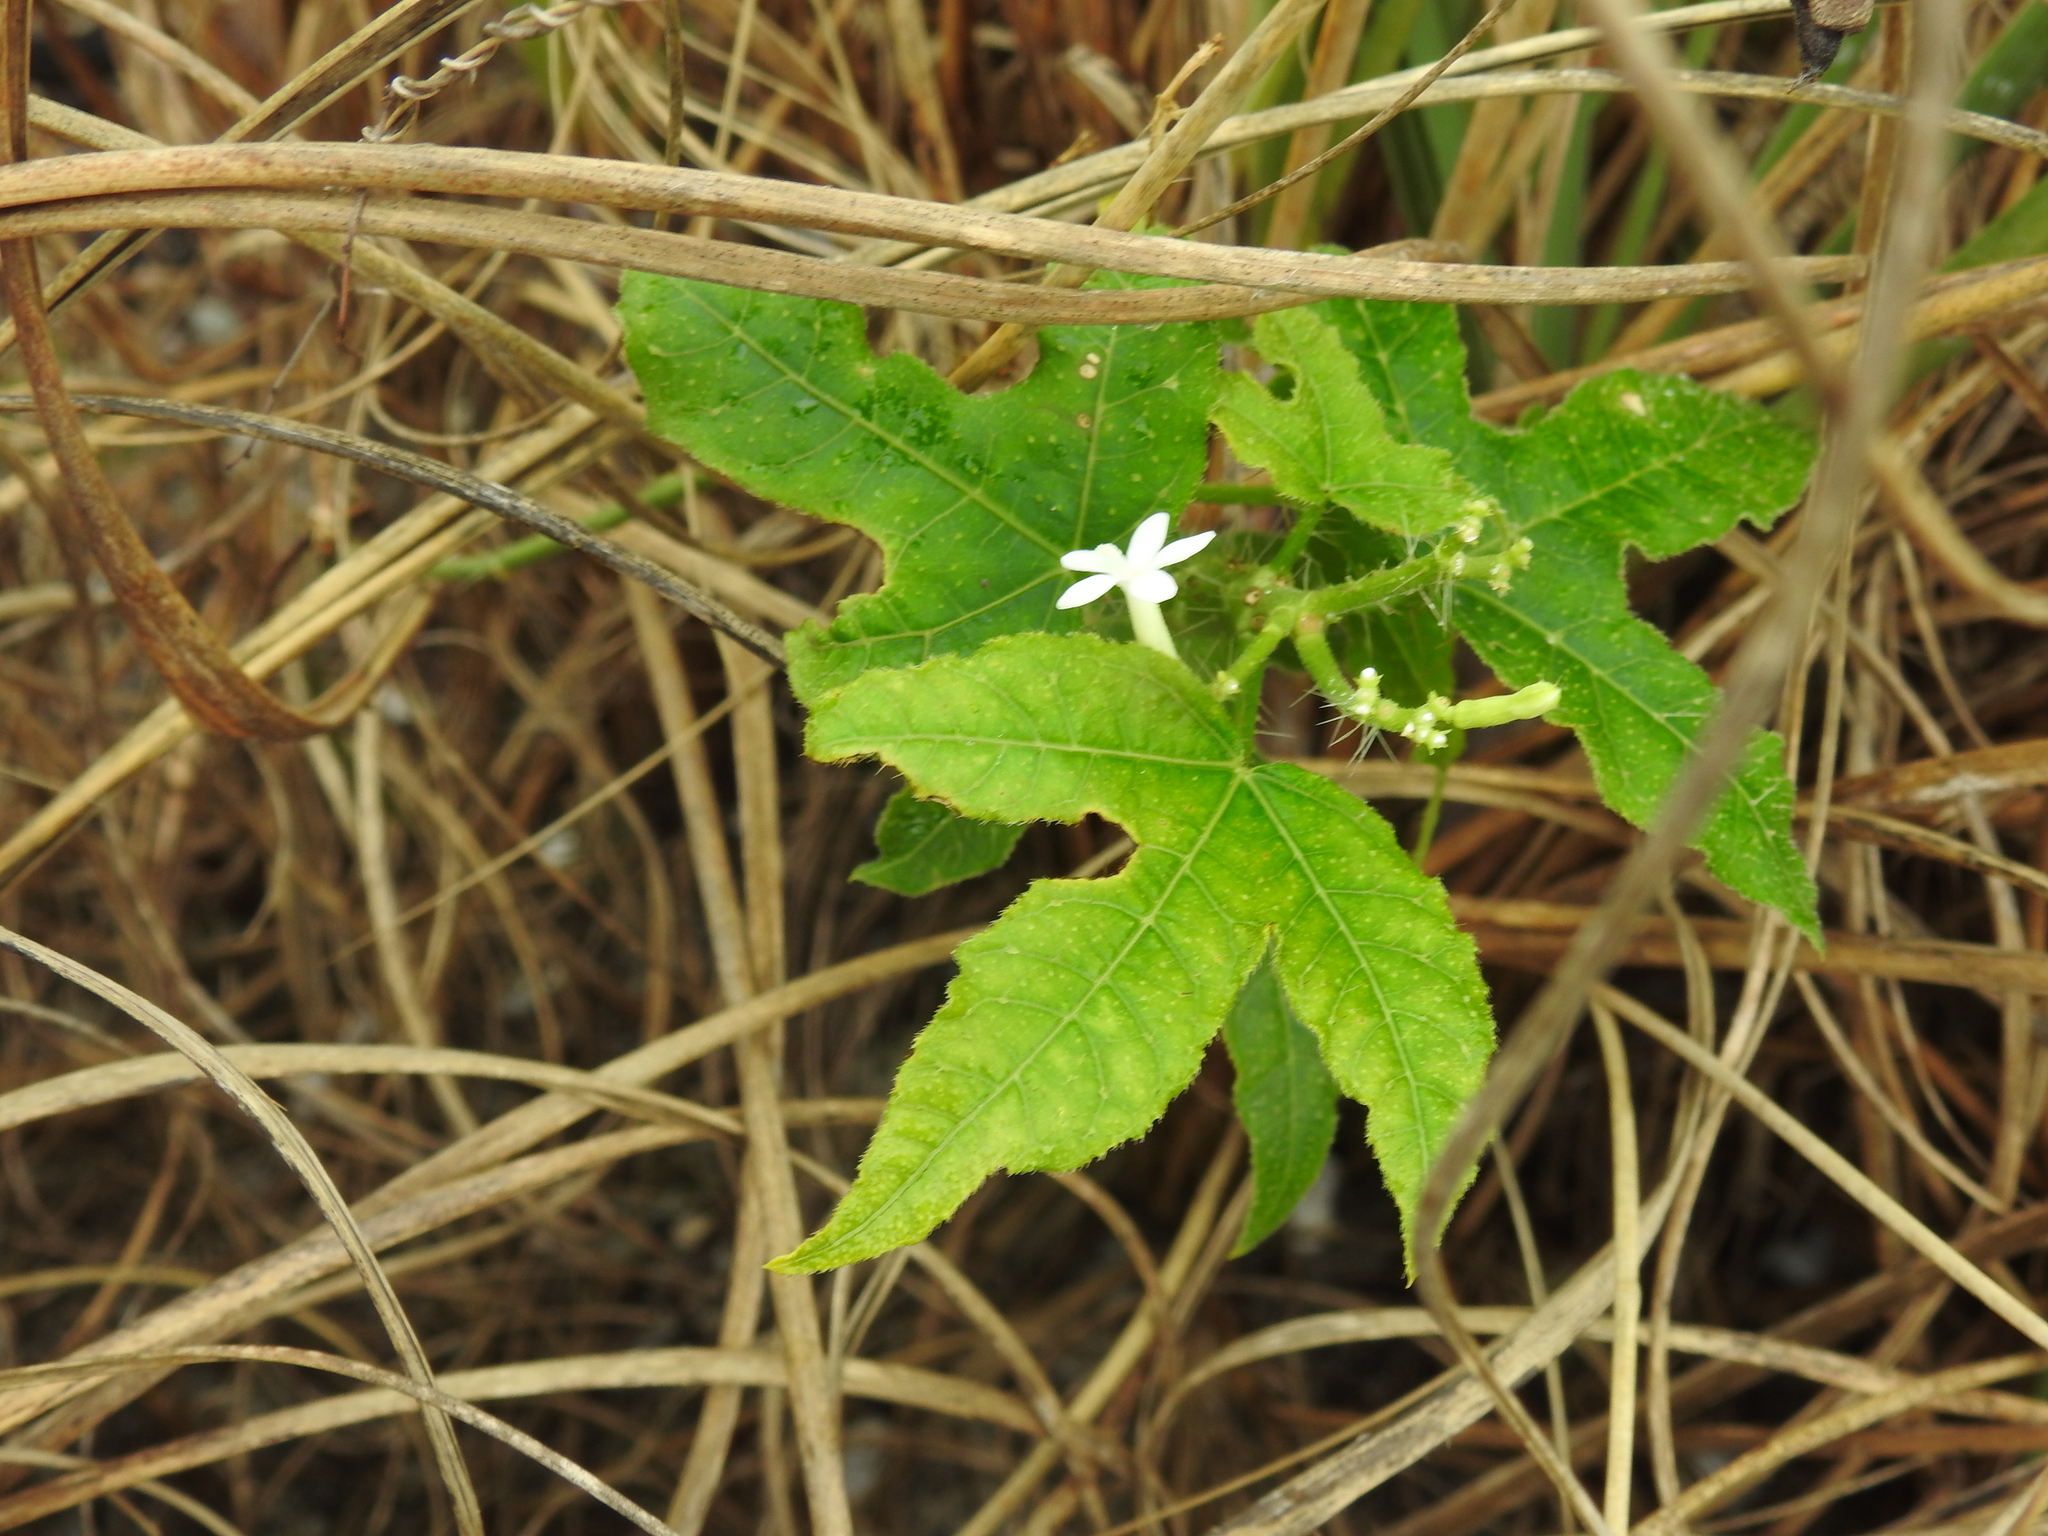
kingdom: Plantae
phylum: Tracheophyta
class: Magnoliopsida
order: Malpighiales
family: Euphorbiaceae
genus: Cnidoscolus
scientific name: Cnidoscolus stimulosus
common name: Bull-nettle
